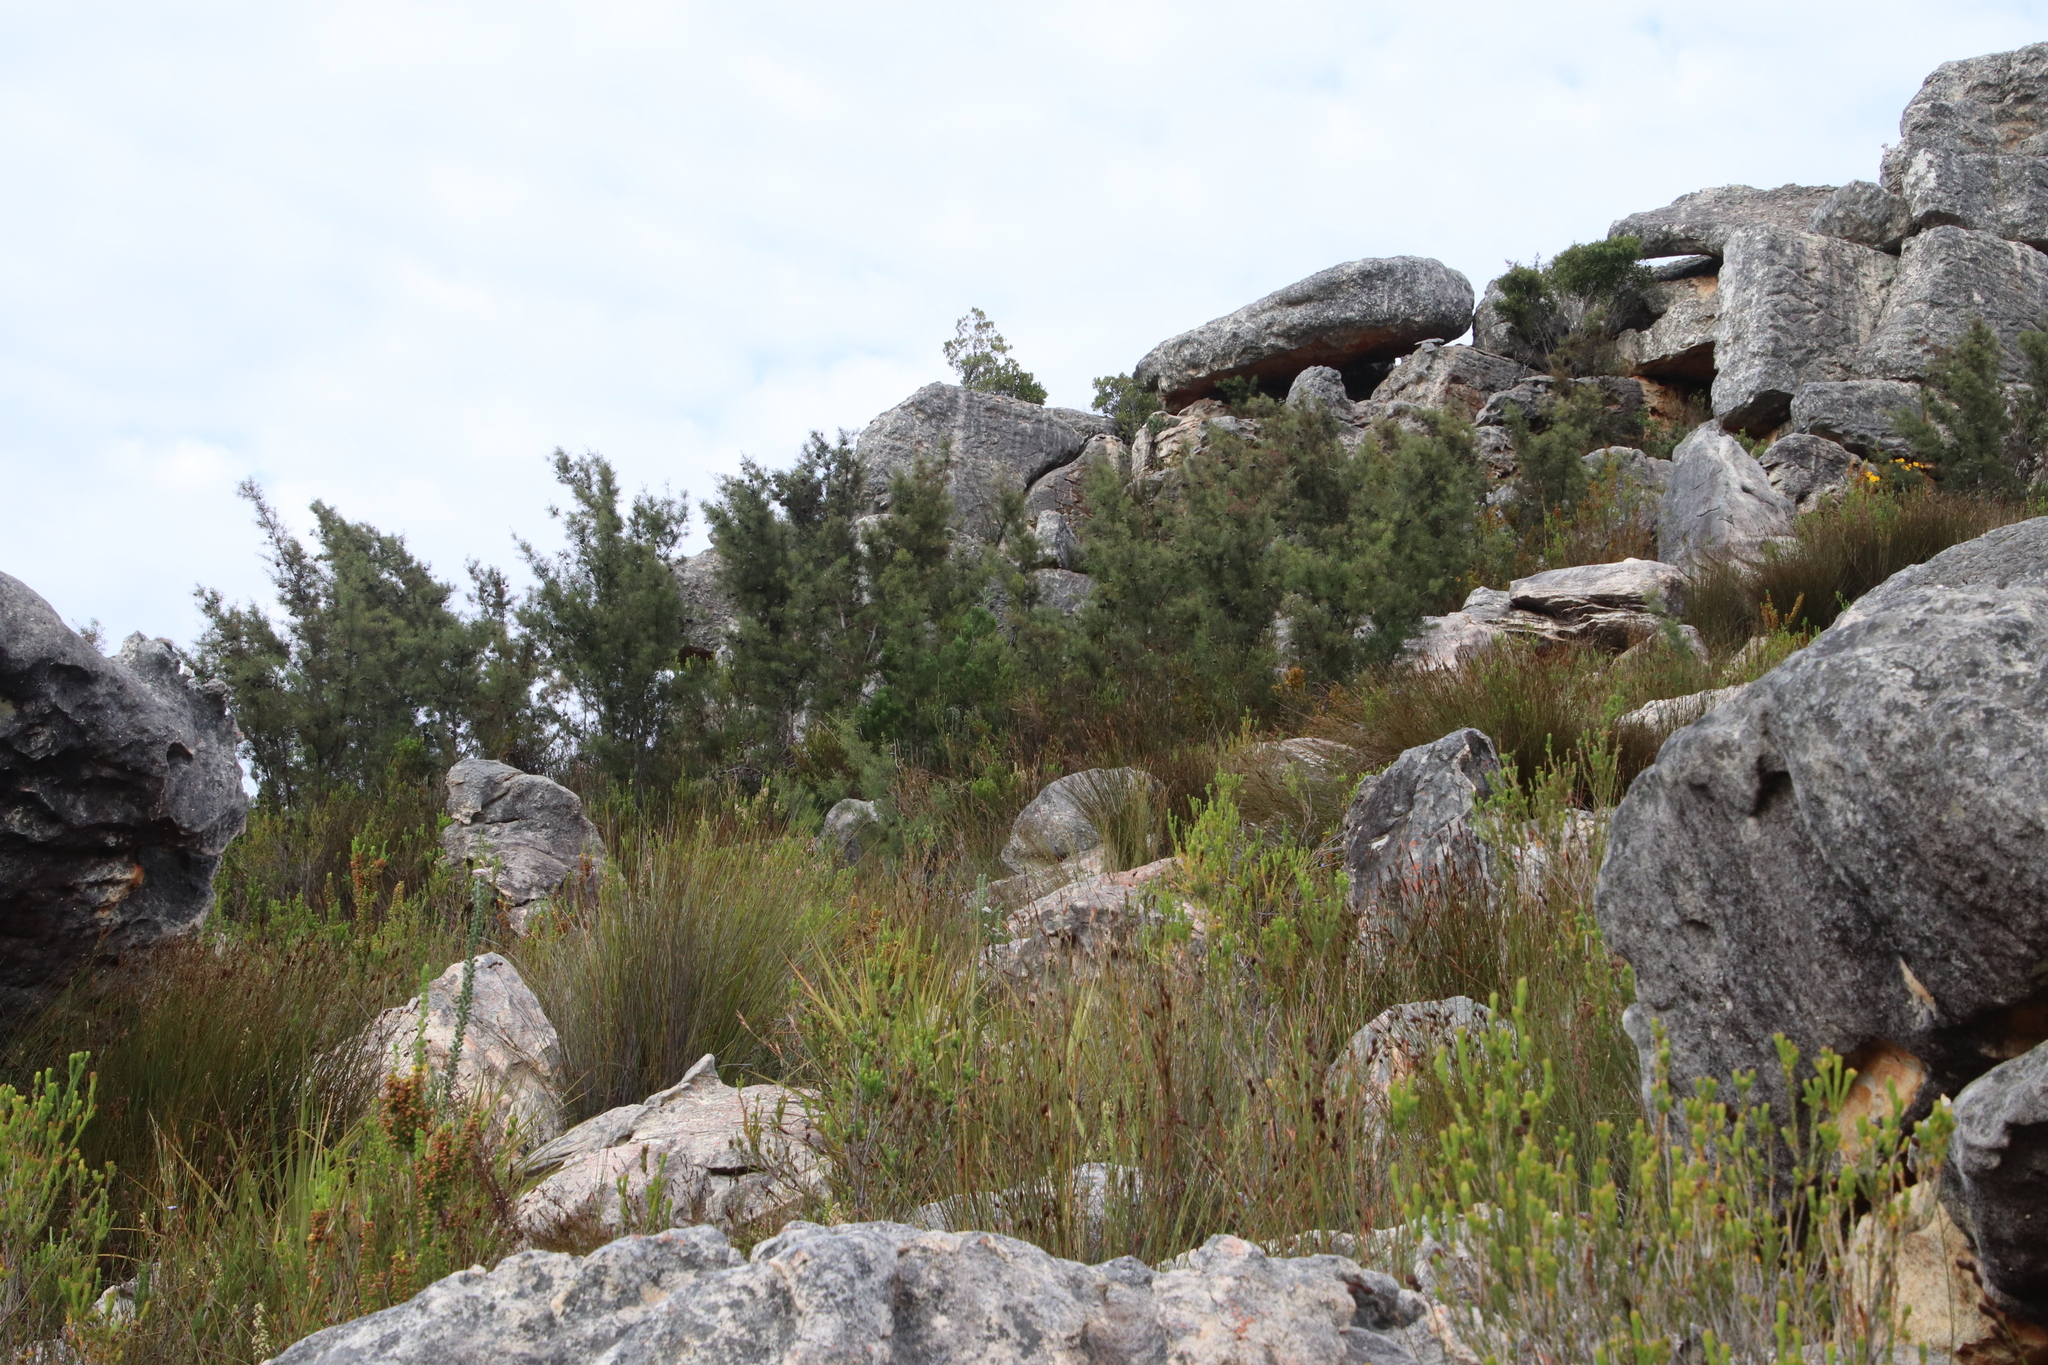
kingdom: Plantae
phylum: Tracheophyta
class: Magnoliopsida
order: Proteales
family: Proteaceae
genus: Hakea
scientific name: Hakea sericea
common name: Needle bush
